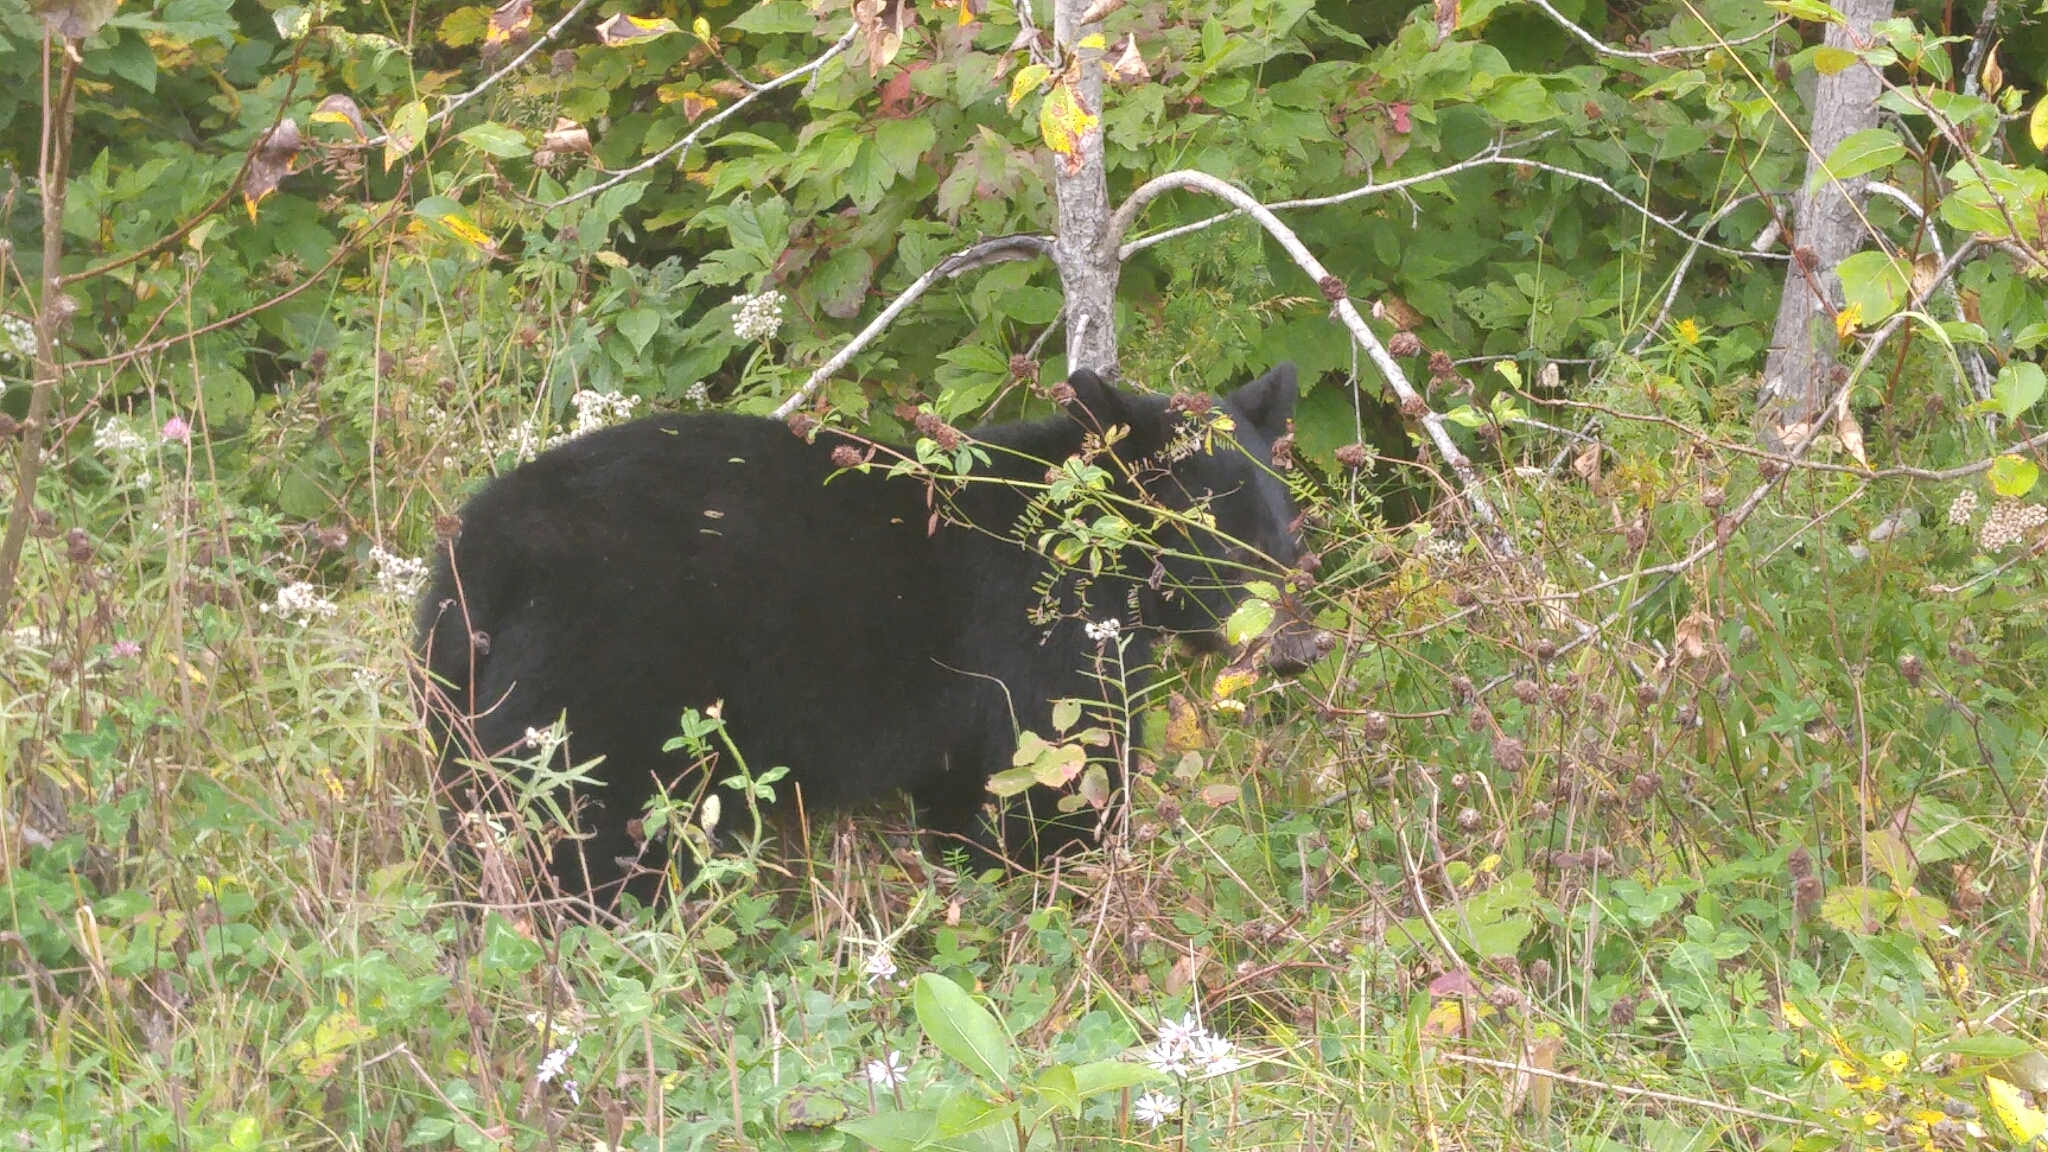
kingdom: Animalia
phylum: Chordata
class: Mammalia
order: Carnivora
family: Ursidae
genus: Ursus
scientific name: Ursus americanus
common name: American black bear
